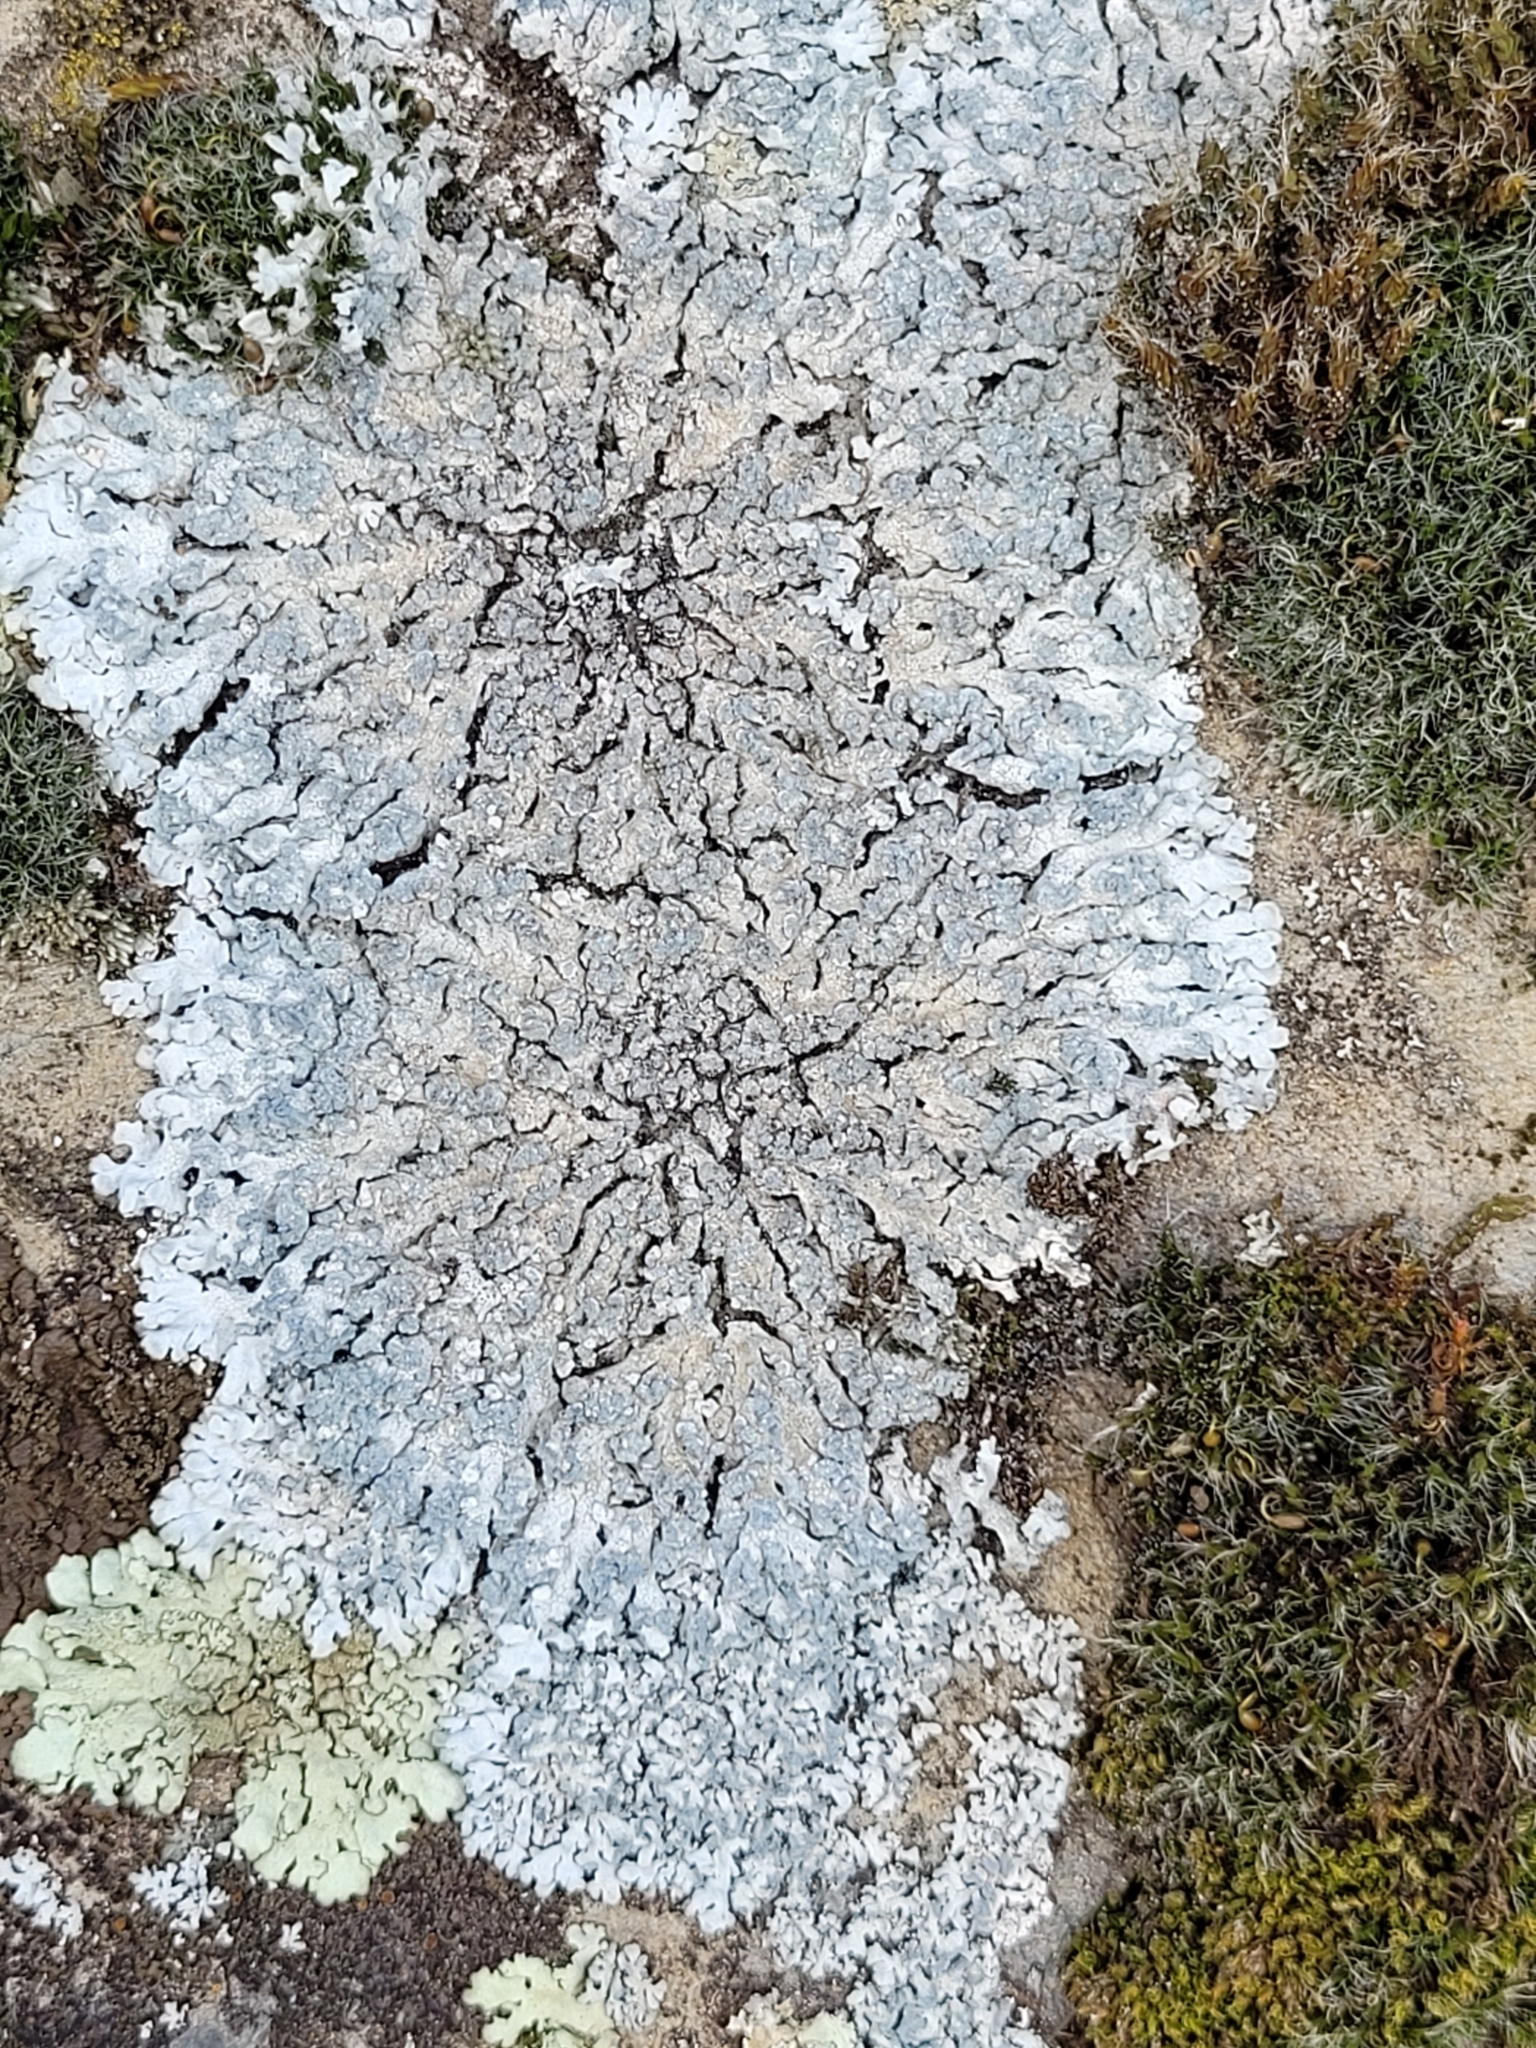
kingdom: Fungi
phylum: Ascomycota
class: Lecanoromycetes
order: Caliciales
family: Physciaceae
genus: Physcia
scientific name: Physcia caesia
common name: Blue-gray rosette lichen
